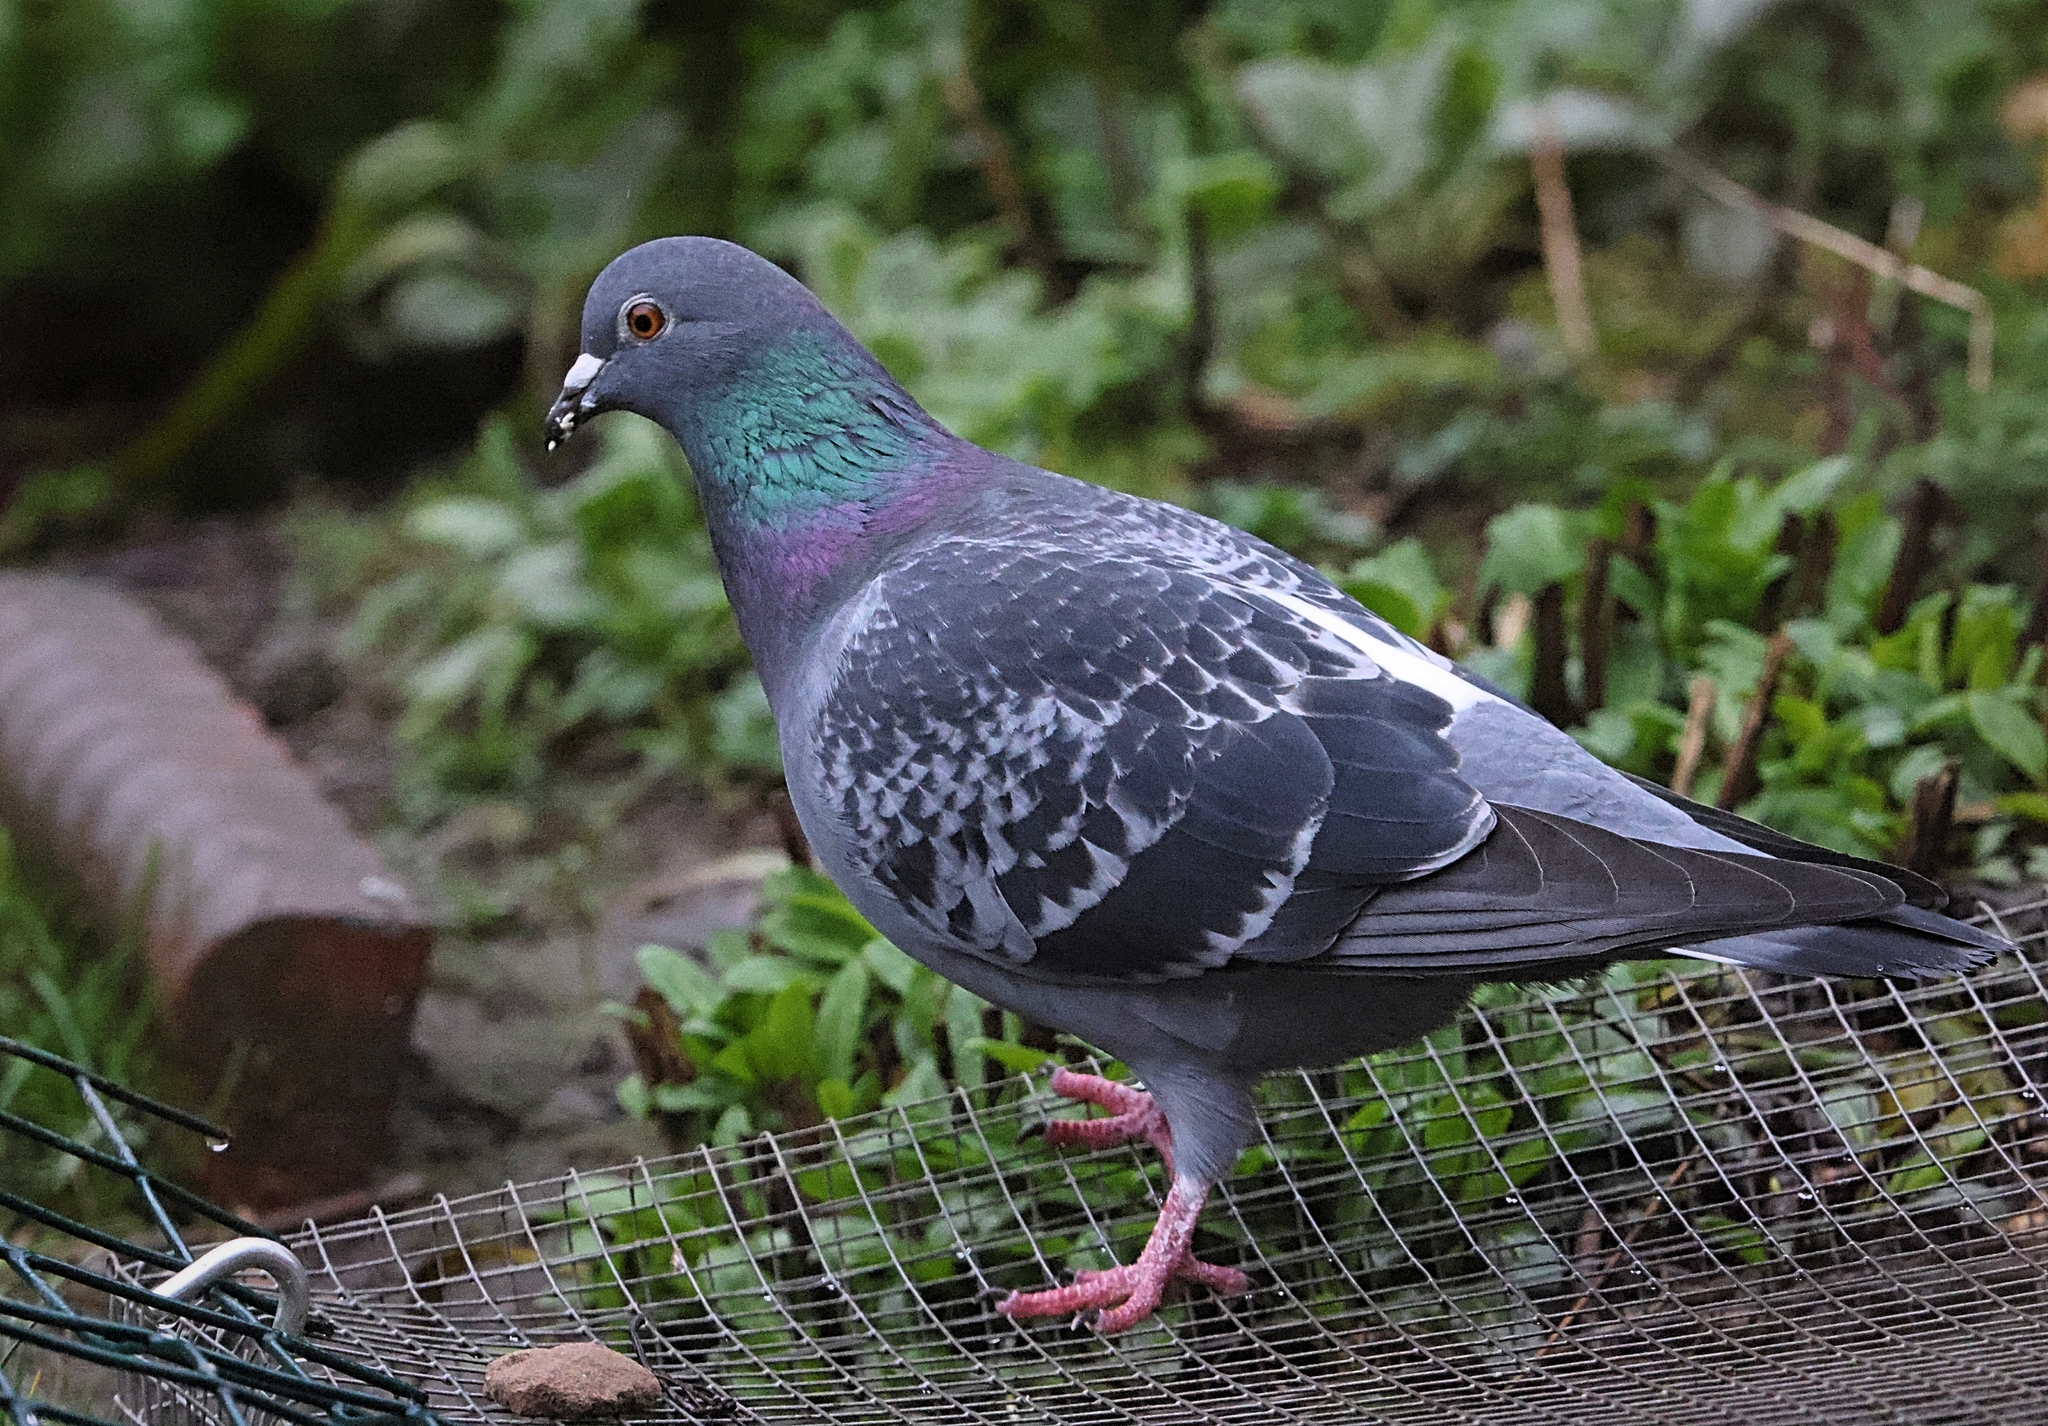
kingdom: Animalia
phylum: Chordata
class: Aves
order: Columbiformes
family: Columbidae
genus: Columba
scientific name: Columba livia
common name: Rock pigeon
